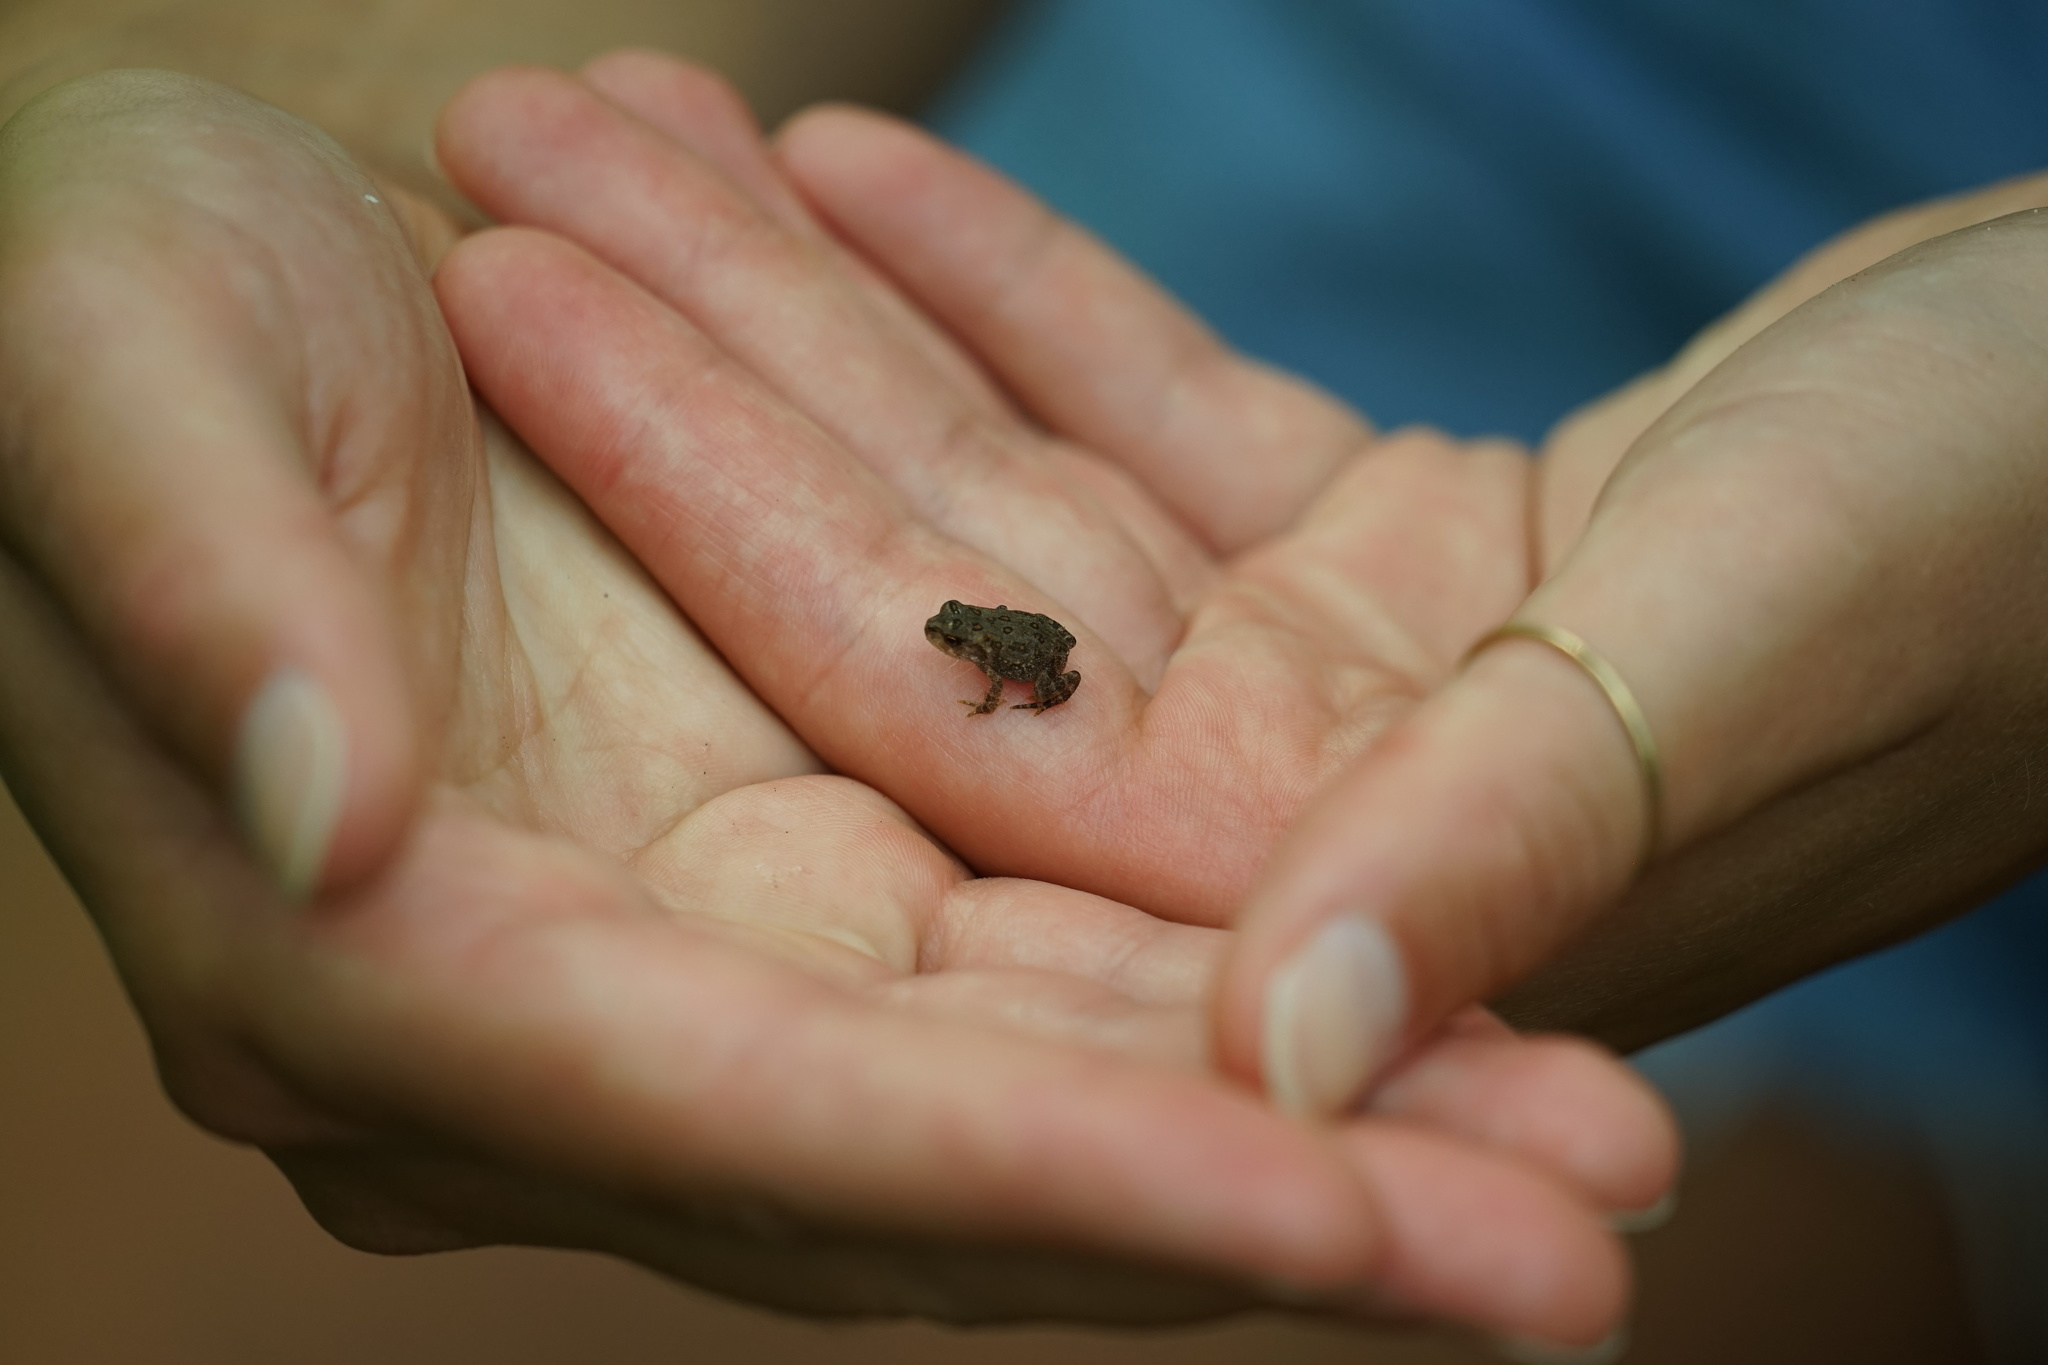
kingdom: Animalia
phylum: Chordata
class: Amphibia
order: Anura
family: Bufonidae
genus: Anaxyrus
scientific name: Anaxyrus americanus
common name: American toad
